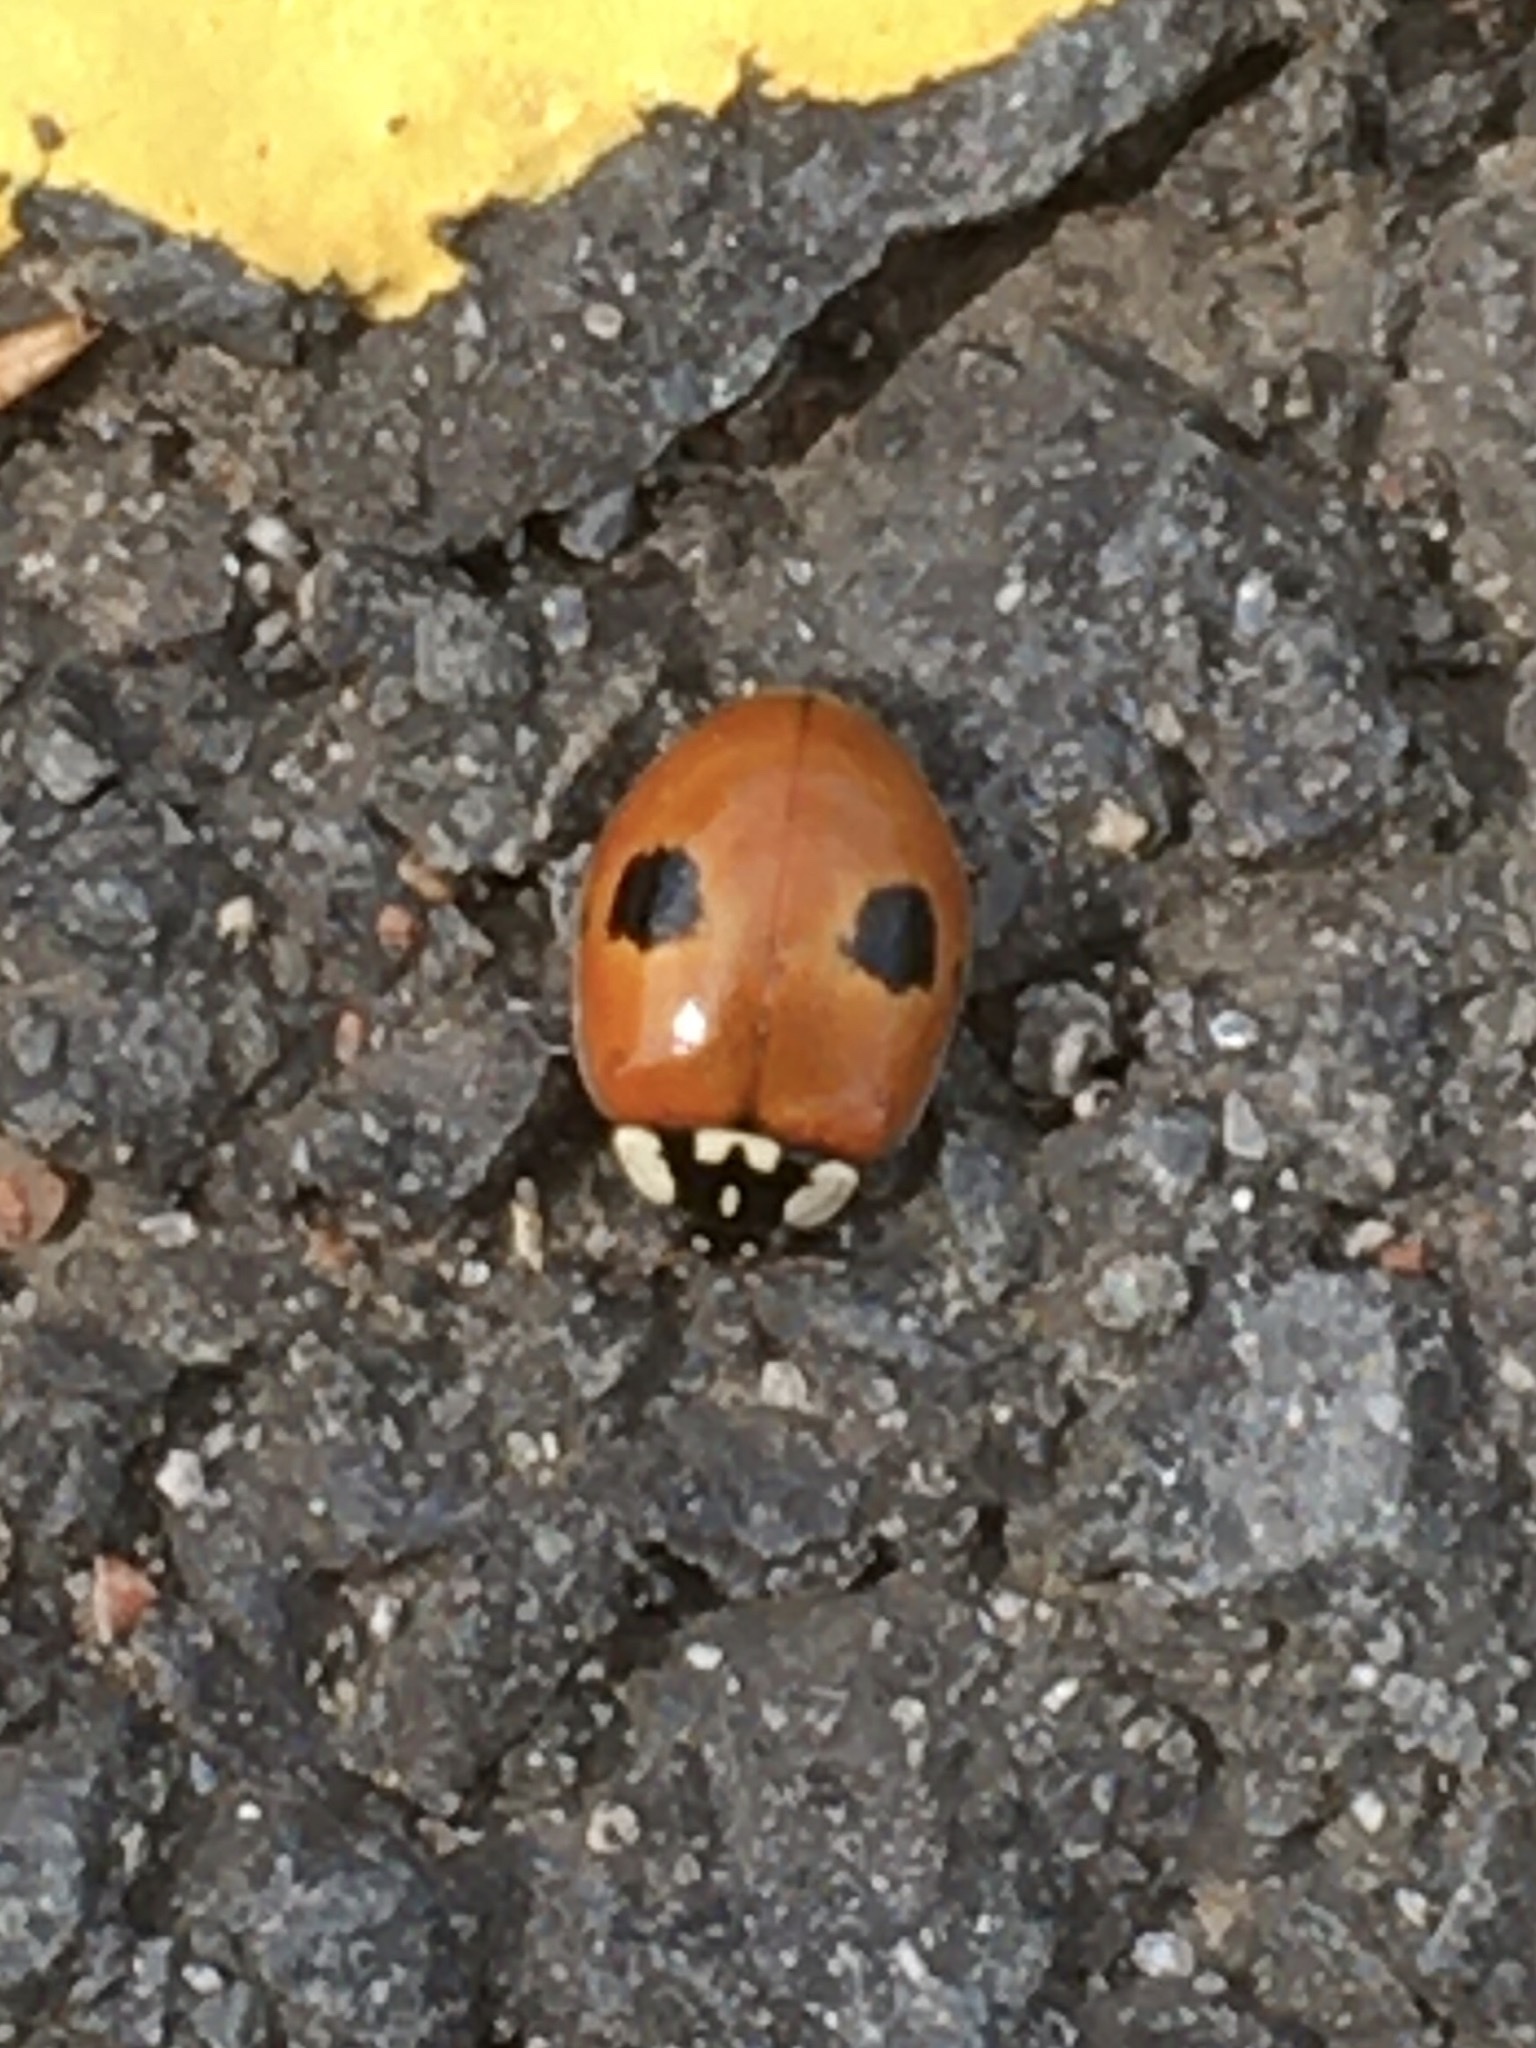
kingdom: Animalia
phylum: Arthropoda
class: Insecta
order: Coleoptera
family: Coccinellidae
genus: Adalia
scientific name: Adalia bipunctata
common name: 2-spot ladybird
